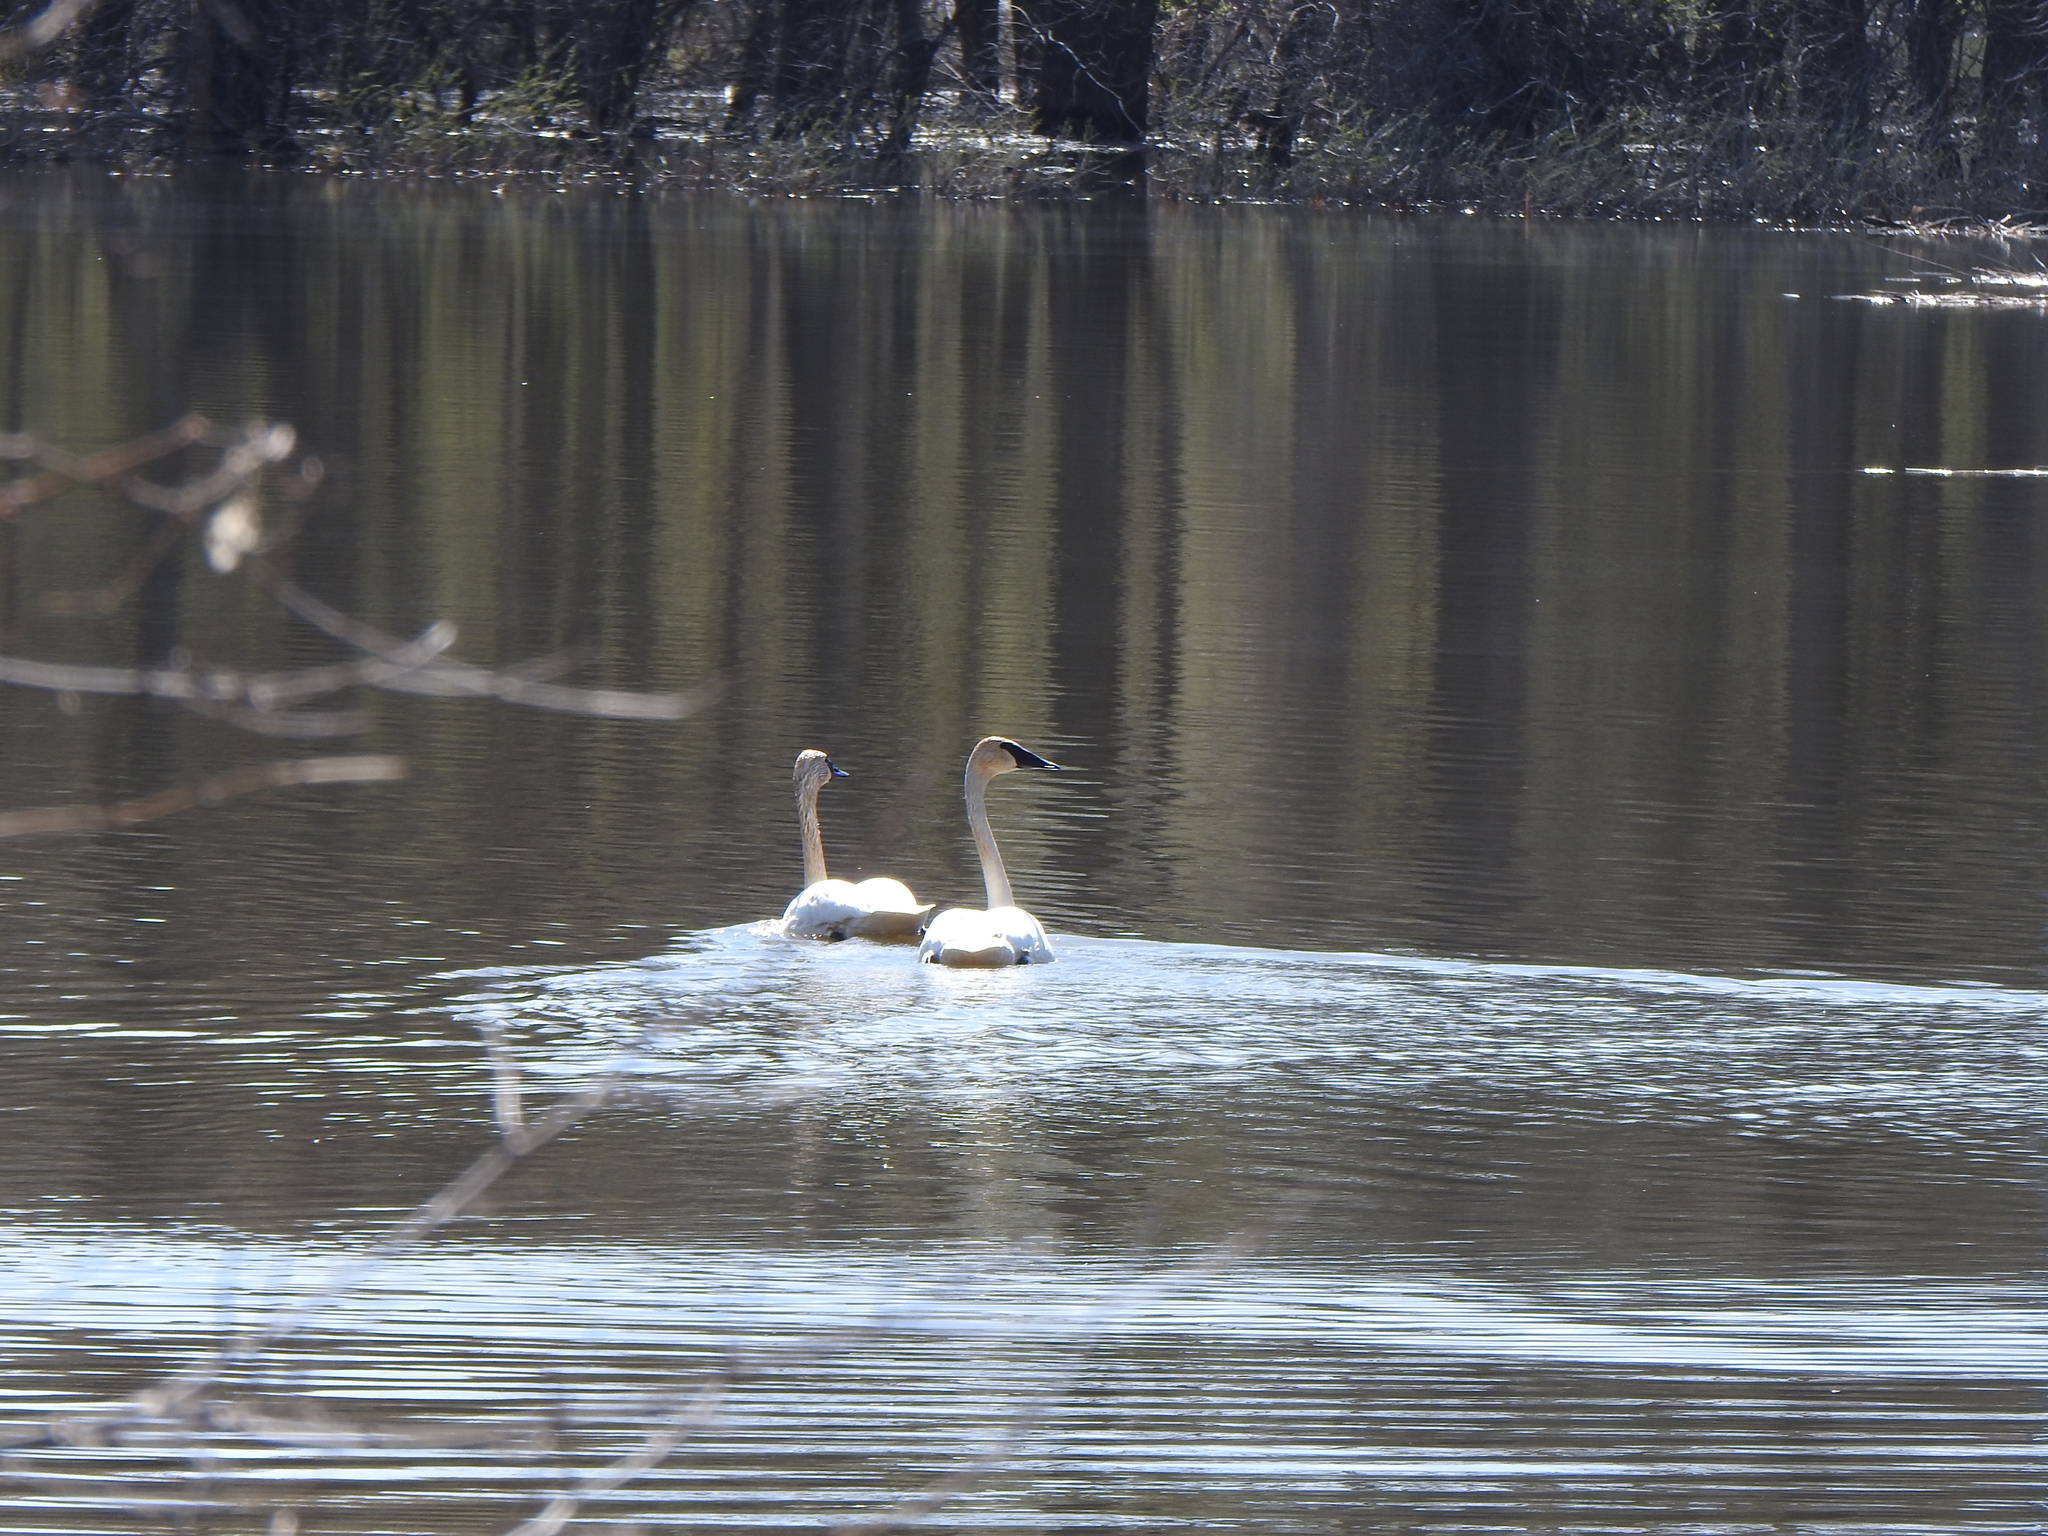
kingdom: Animalia
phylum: Chordata
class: Aves
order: Anseriformes
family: Anatidae
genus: Cygnus
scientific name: Cygnus buccinator
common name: Trumpeter swan
